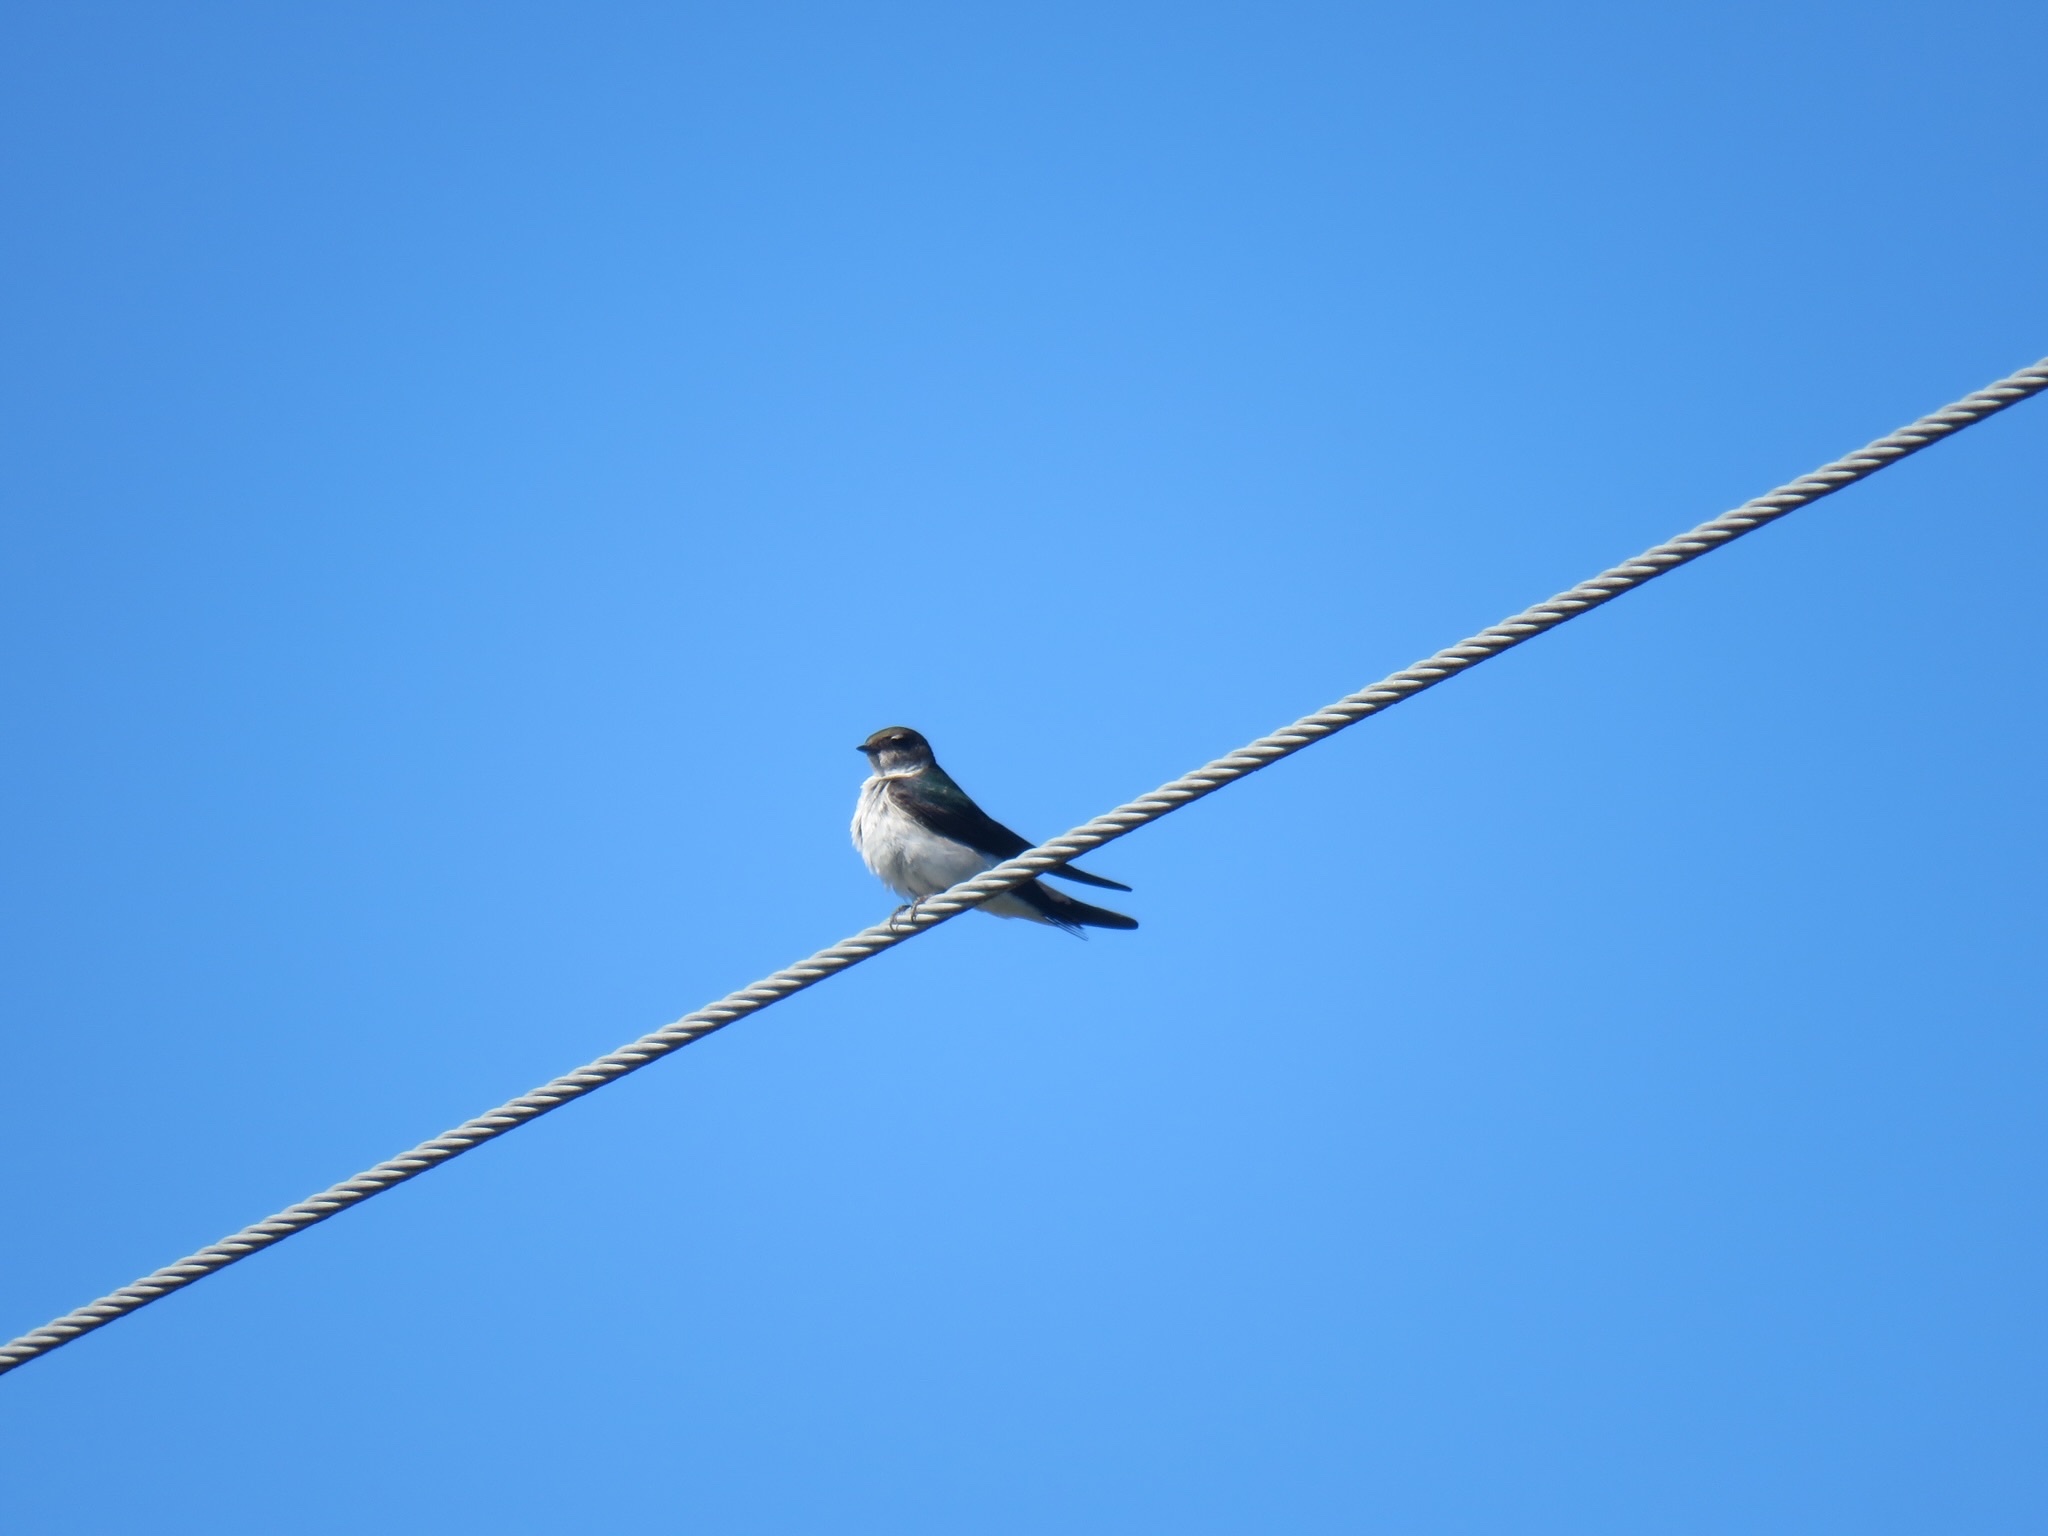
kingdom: Animalia
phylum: Chordata
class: Aves
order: Passeriformes
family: Hirundinidae
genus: Tachycineta
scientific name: Tachycineta thalassina
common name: Violet-green swallow
